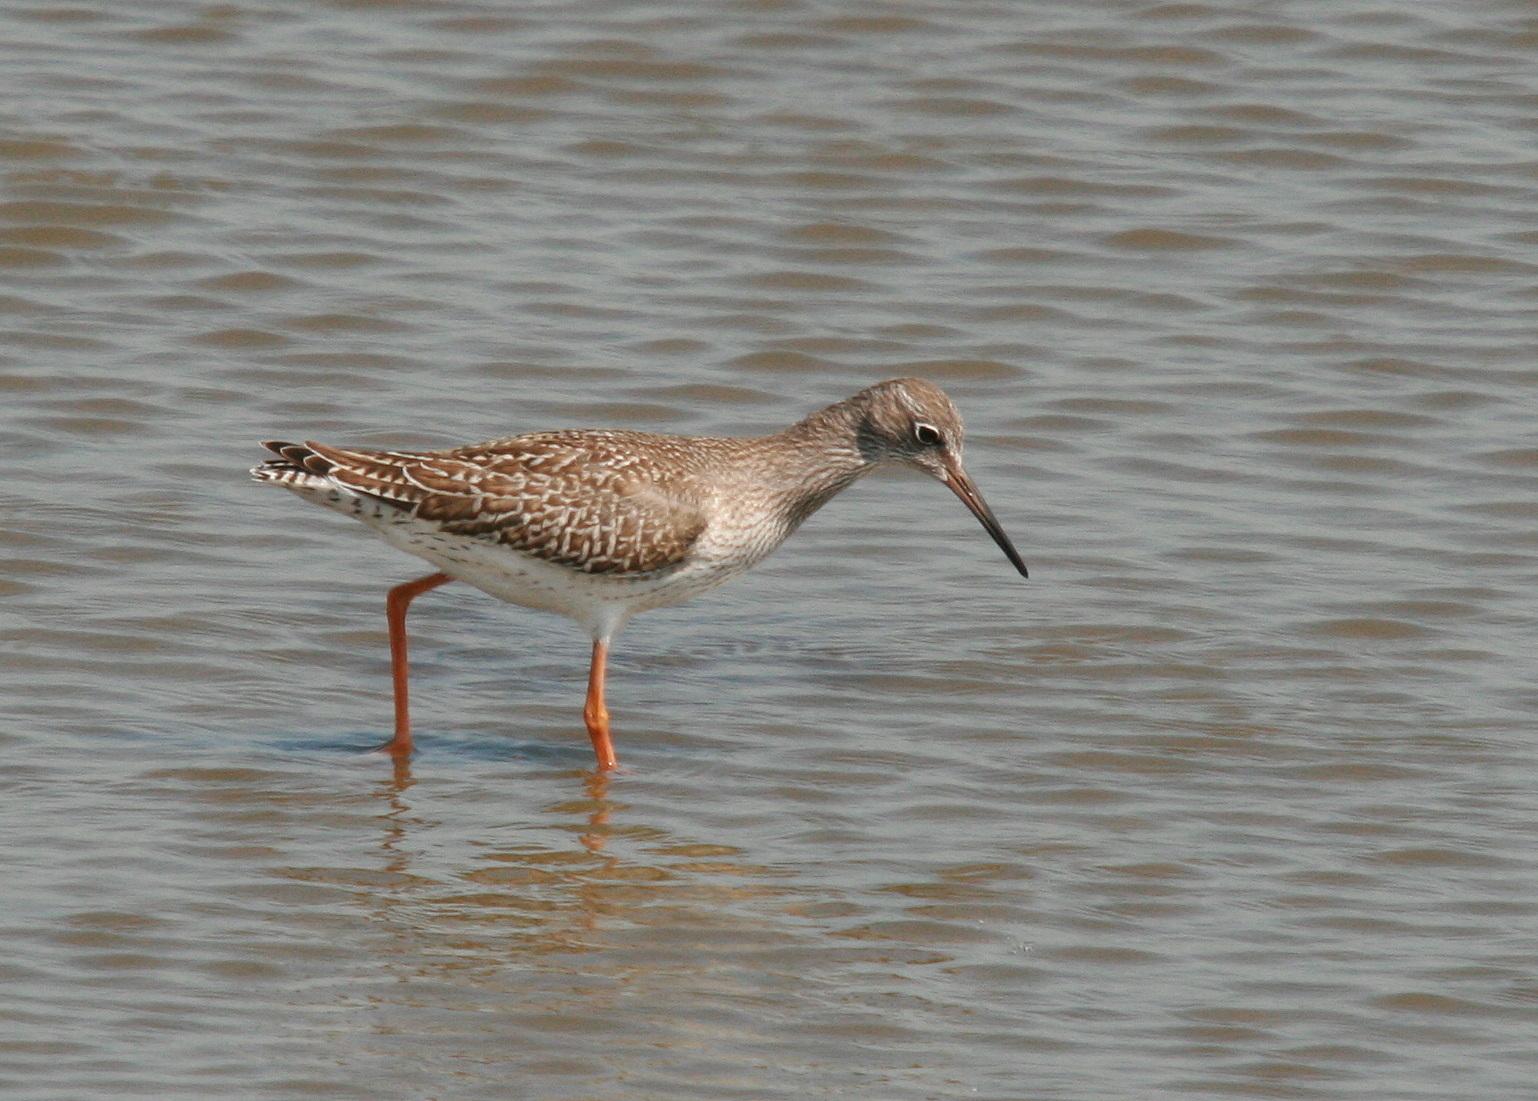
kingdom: Animalia
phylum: Chordata
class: Aves
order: Charadriiformes
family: Scolopacidae
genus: Tringa
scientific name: Tringa totanus
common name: Common redshank
